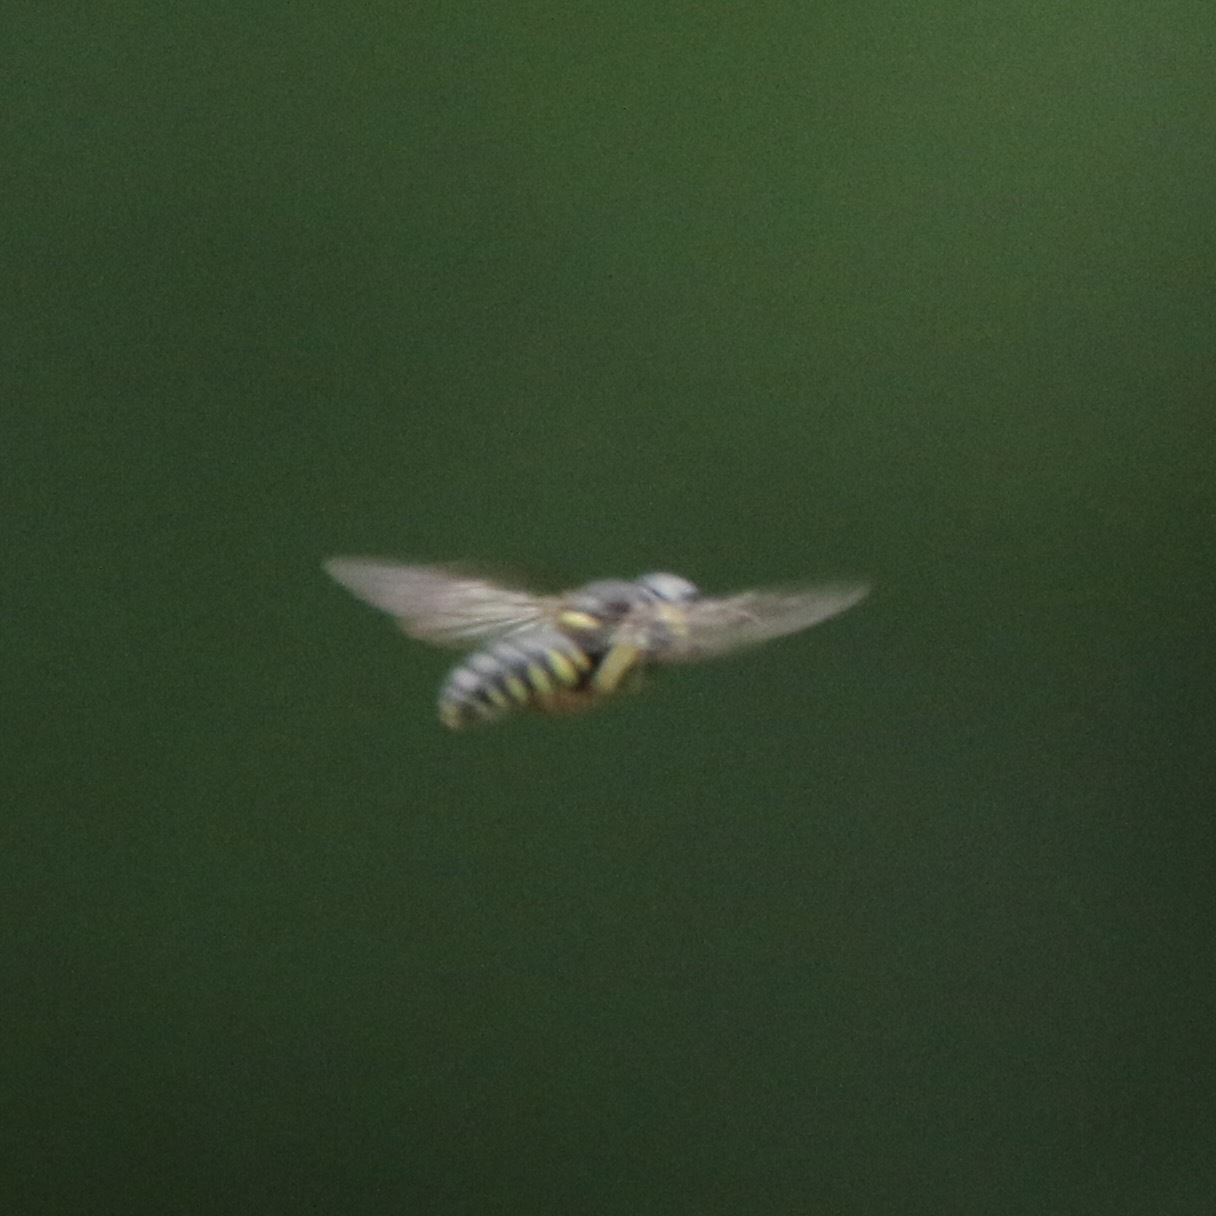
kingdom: Animalia
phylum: Arthropoda
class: Insecta
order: Hymenoptera
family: Crabronidae
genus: Anacrabro
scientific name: Anacrabro ocellatus
